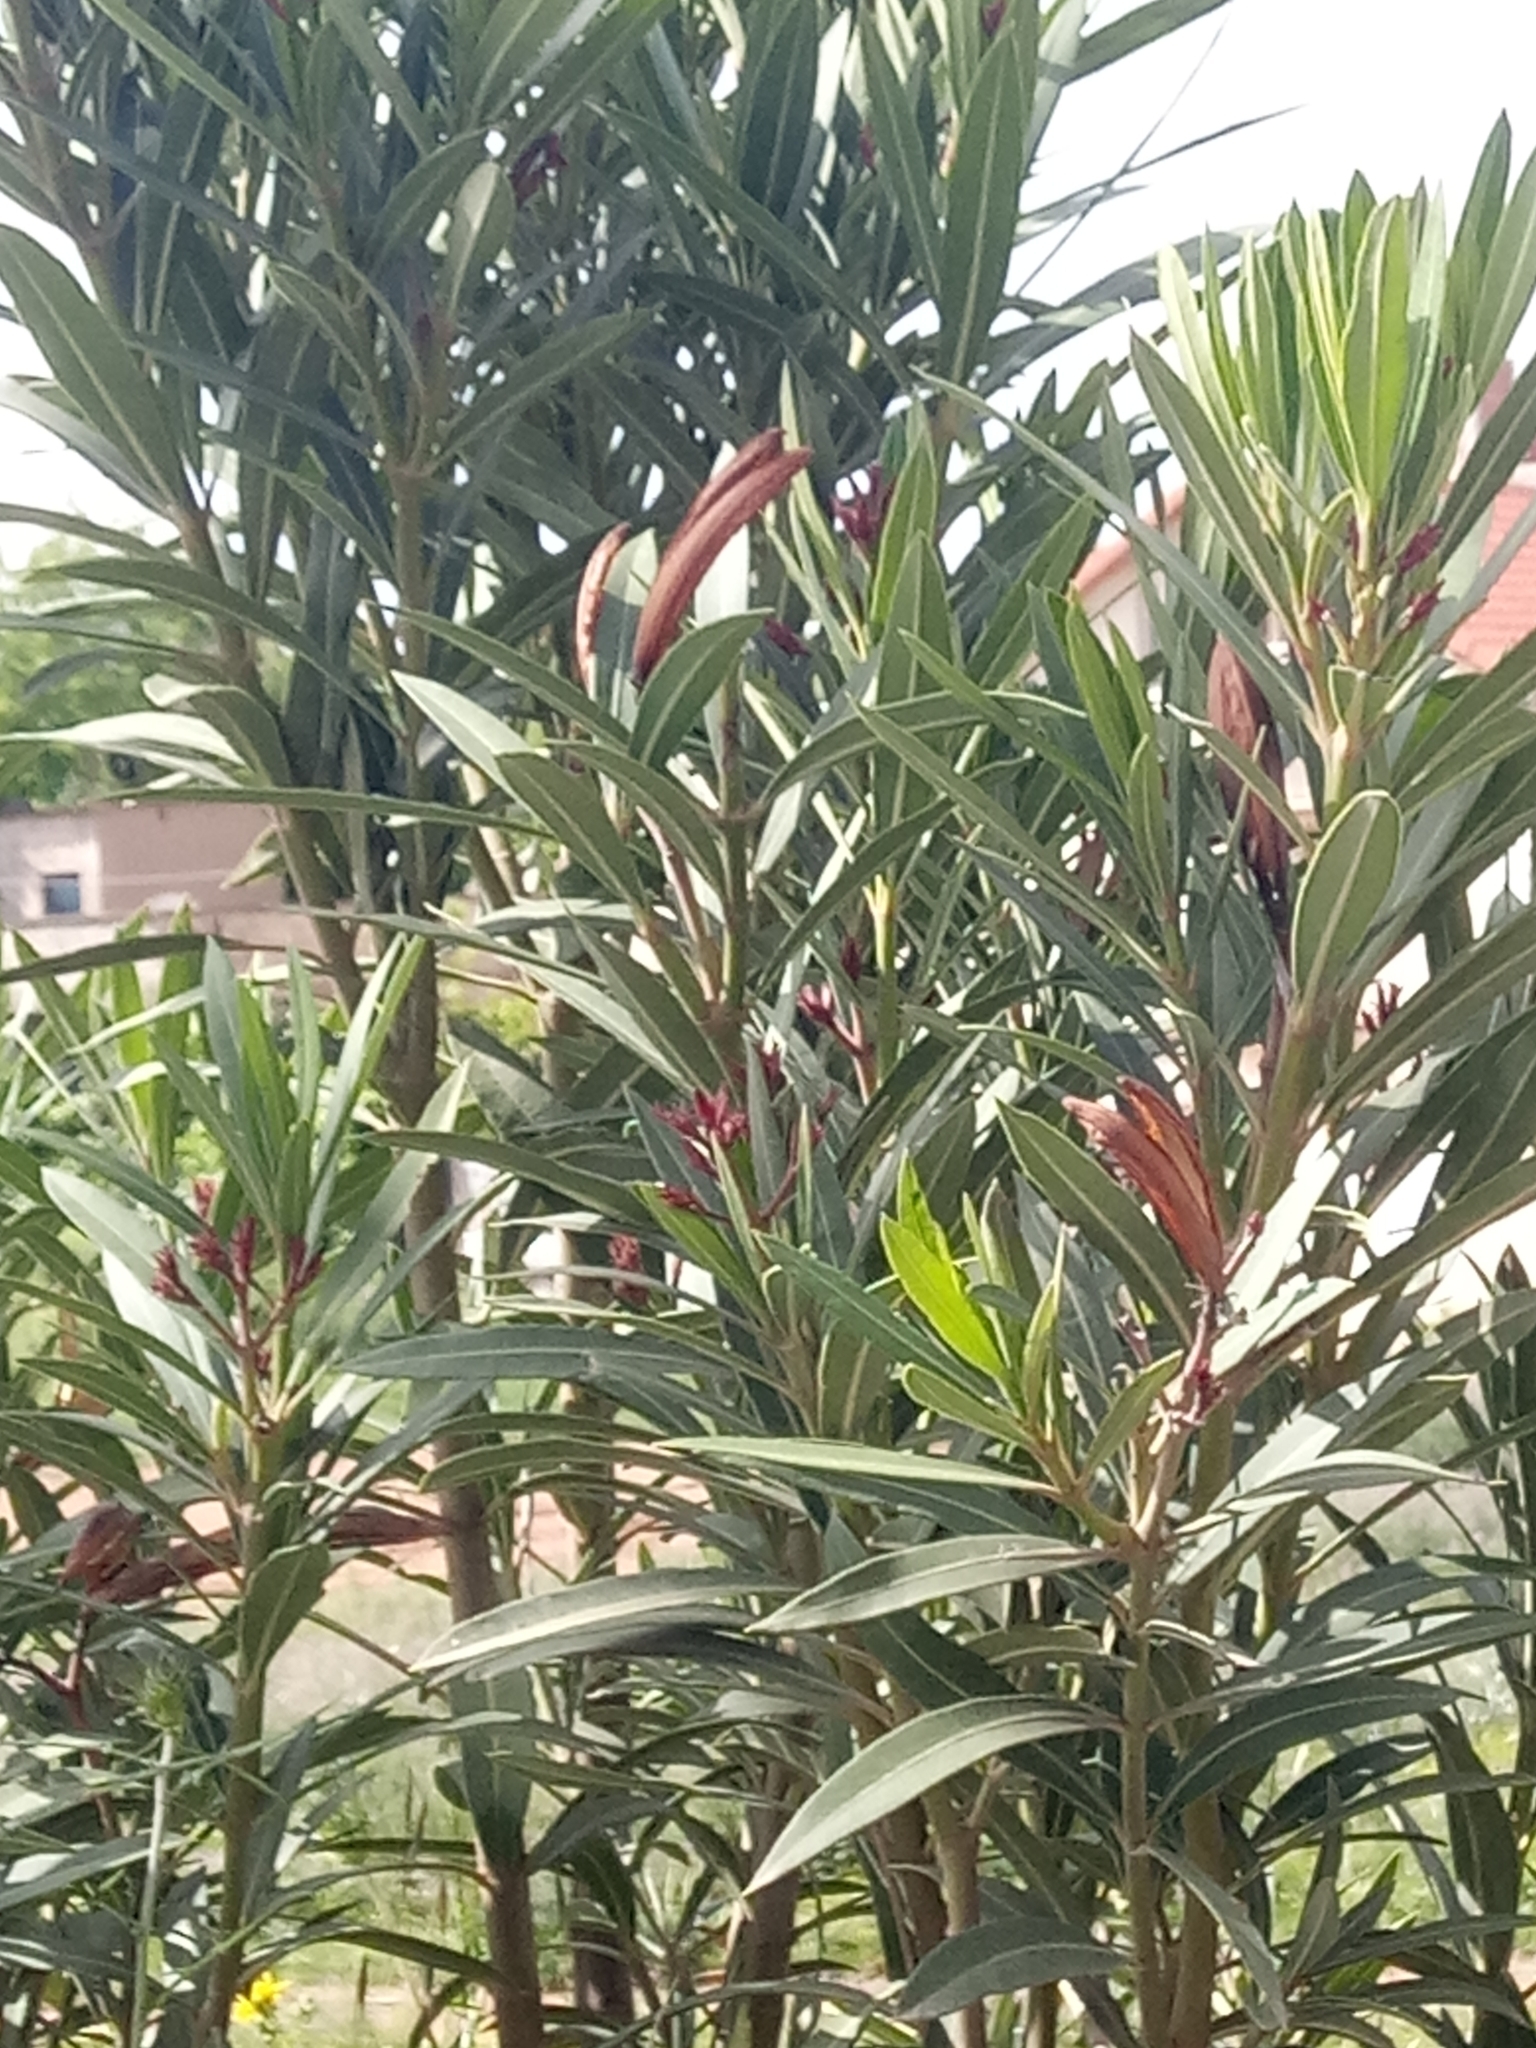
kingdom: Plantae
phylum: Tracheophyta
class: Magnoliopsida
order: Gentianales
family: Apocynaceae
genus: Nerium
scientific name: Nerium oleander
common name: Oleander
